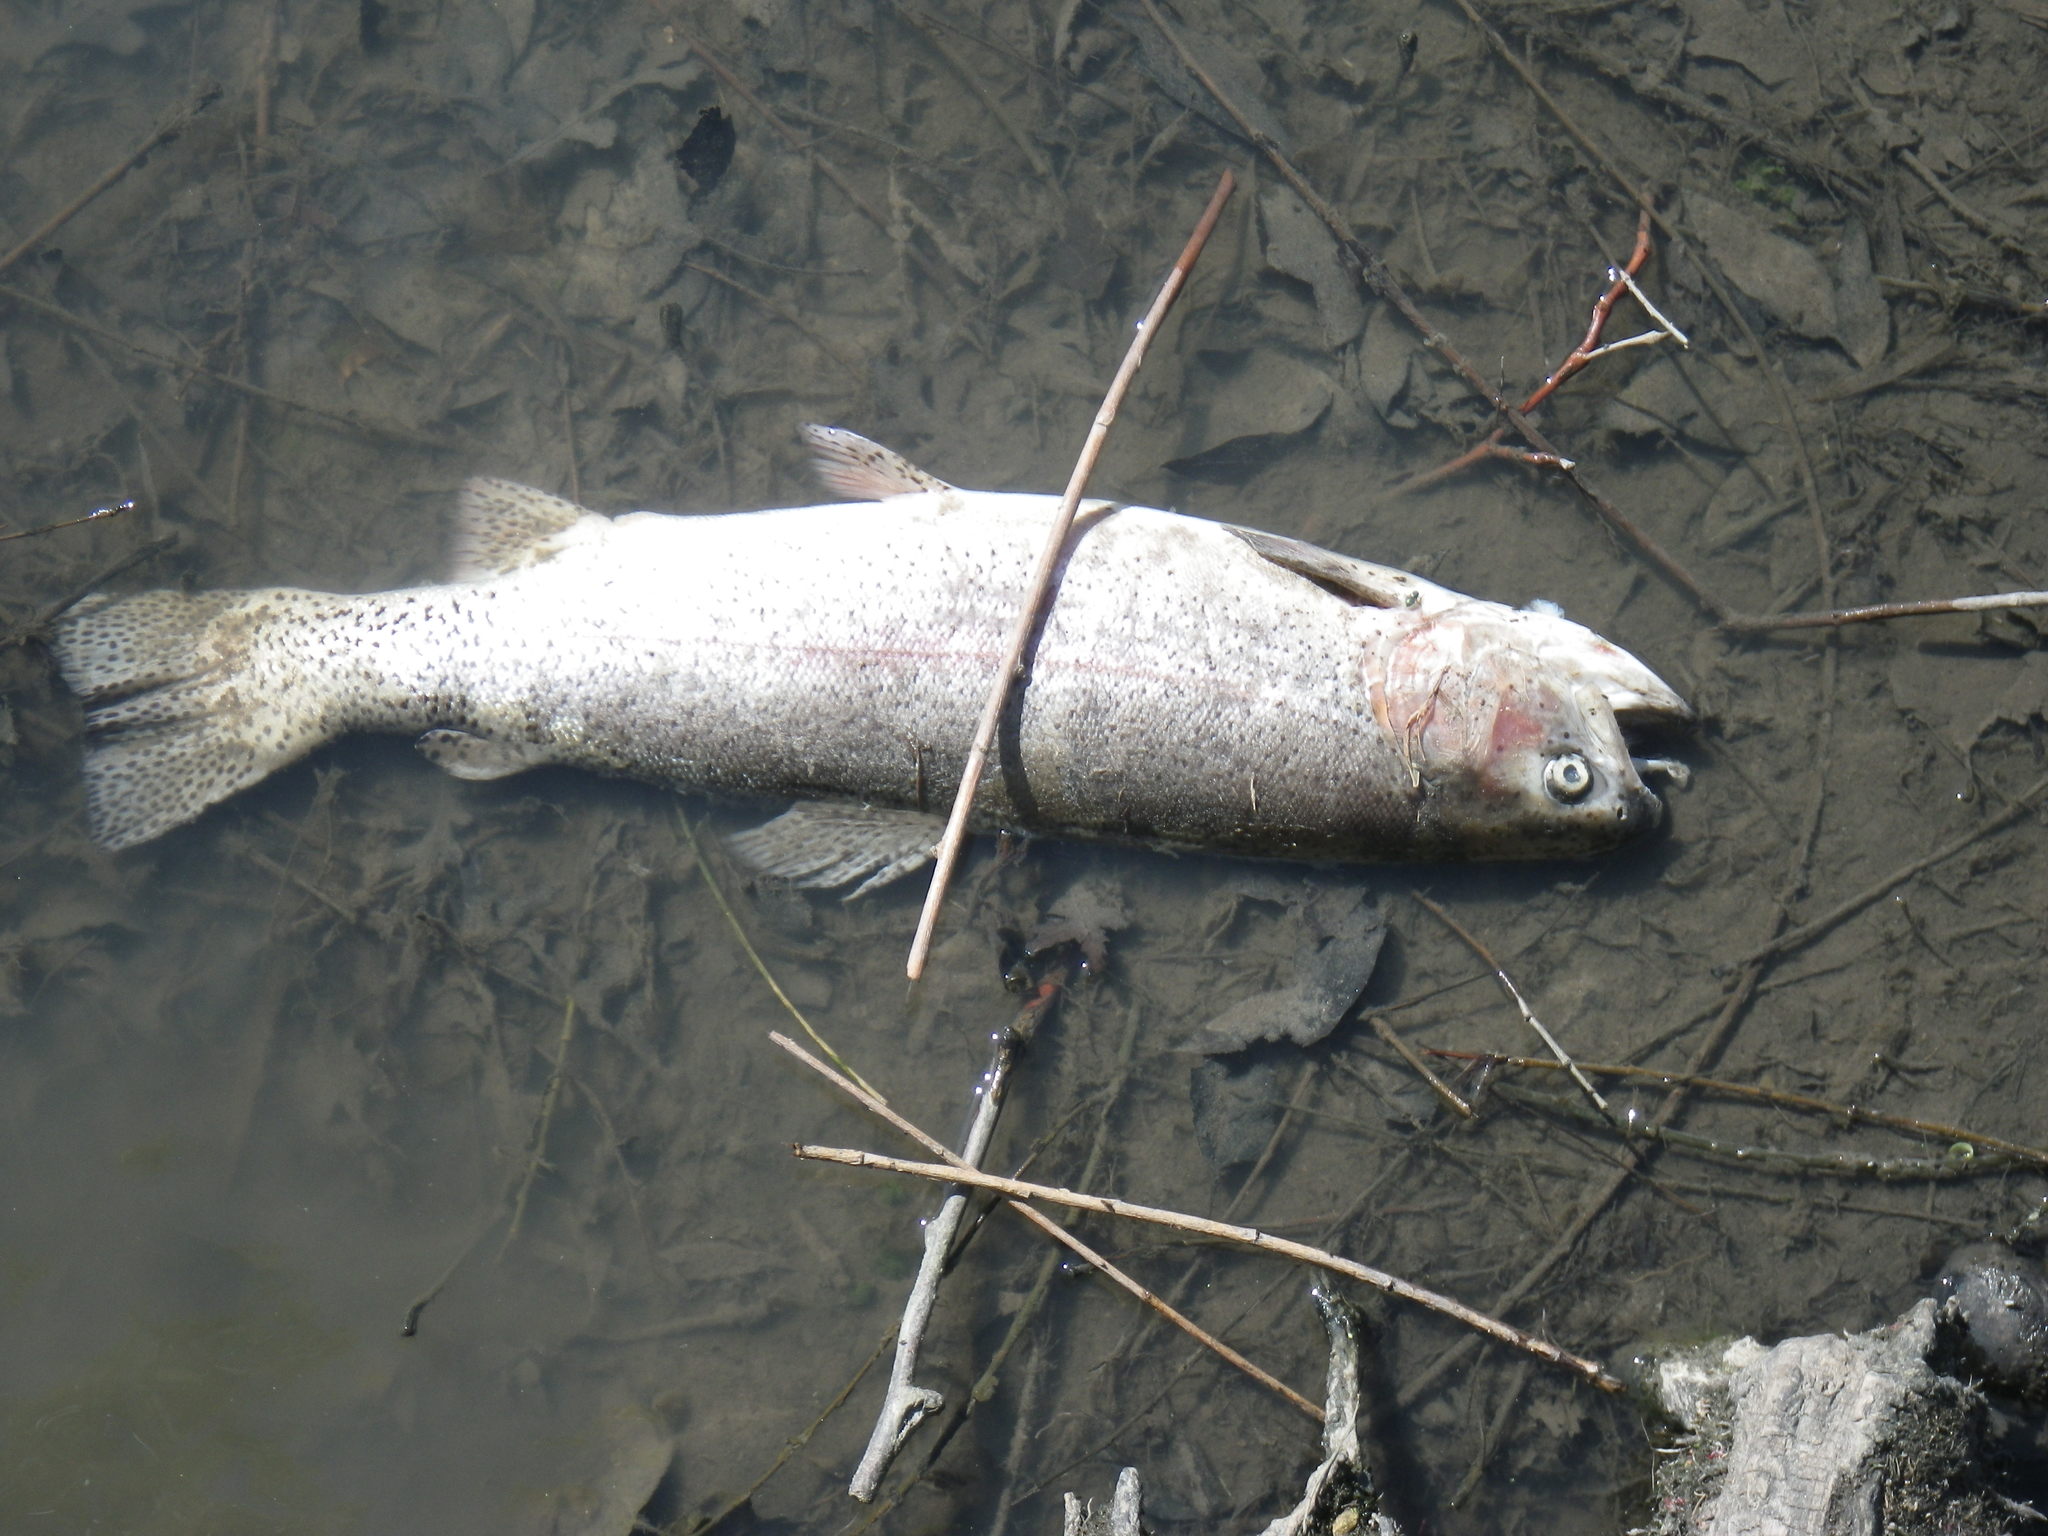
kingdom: Animalia
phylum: Chordata
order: Salmoniformes
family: Salmonidae
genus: Oncorhynchus
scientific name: Oncorhynchus mykiss
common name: Rainbow trout
